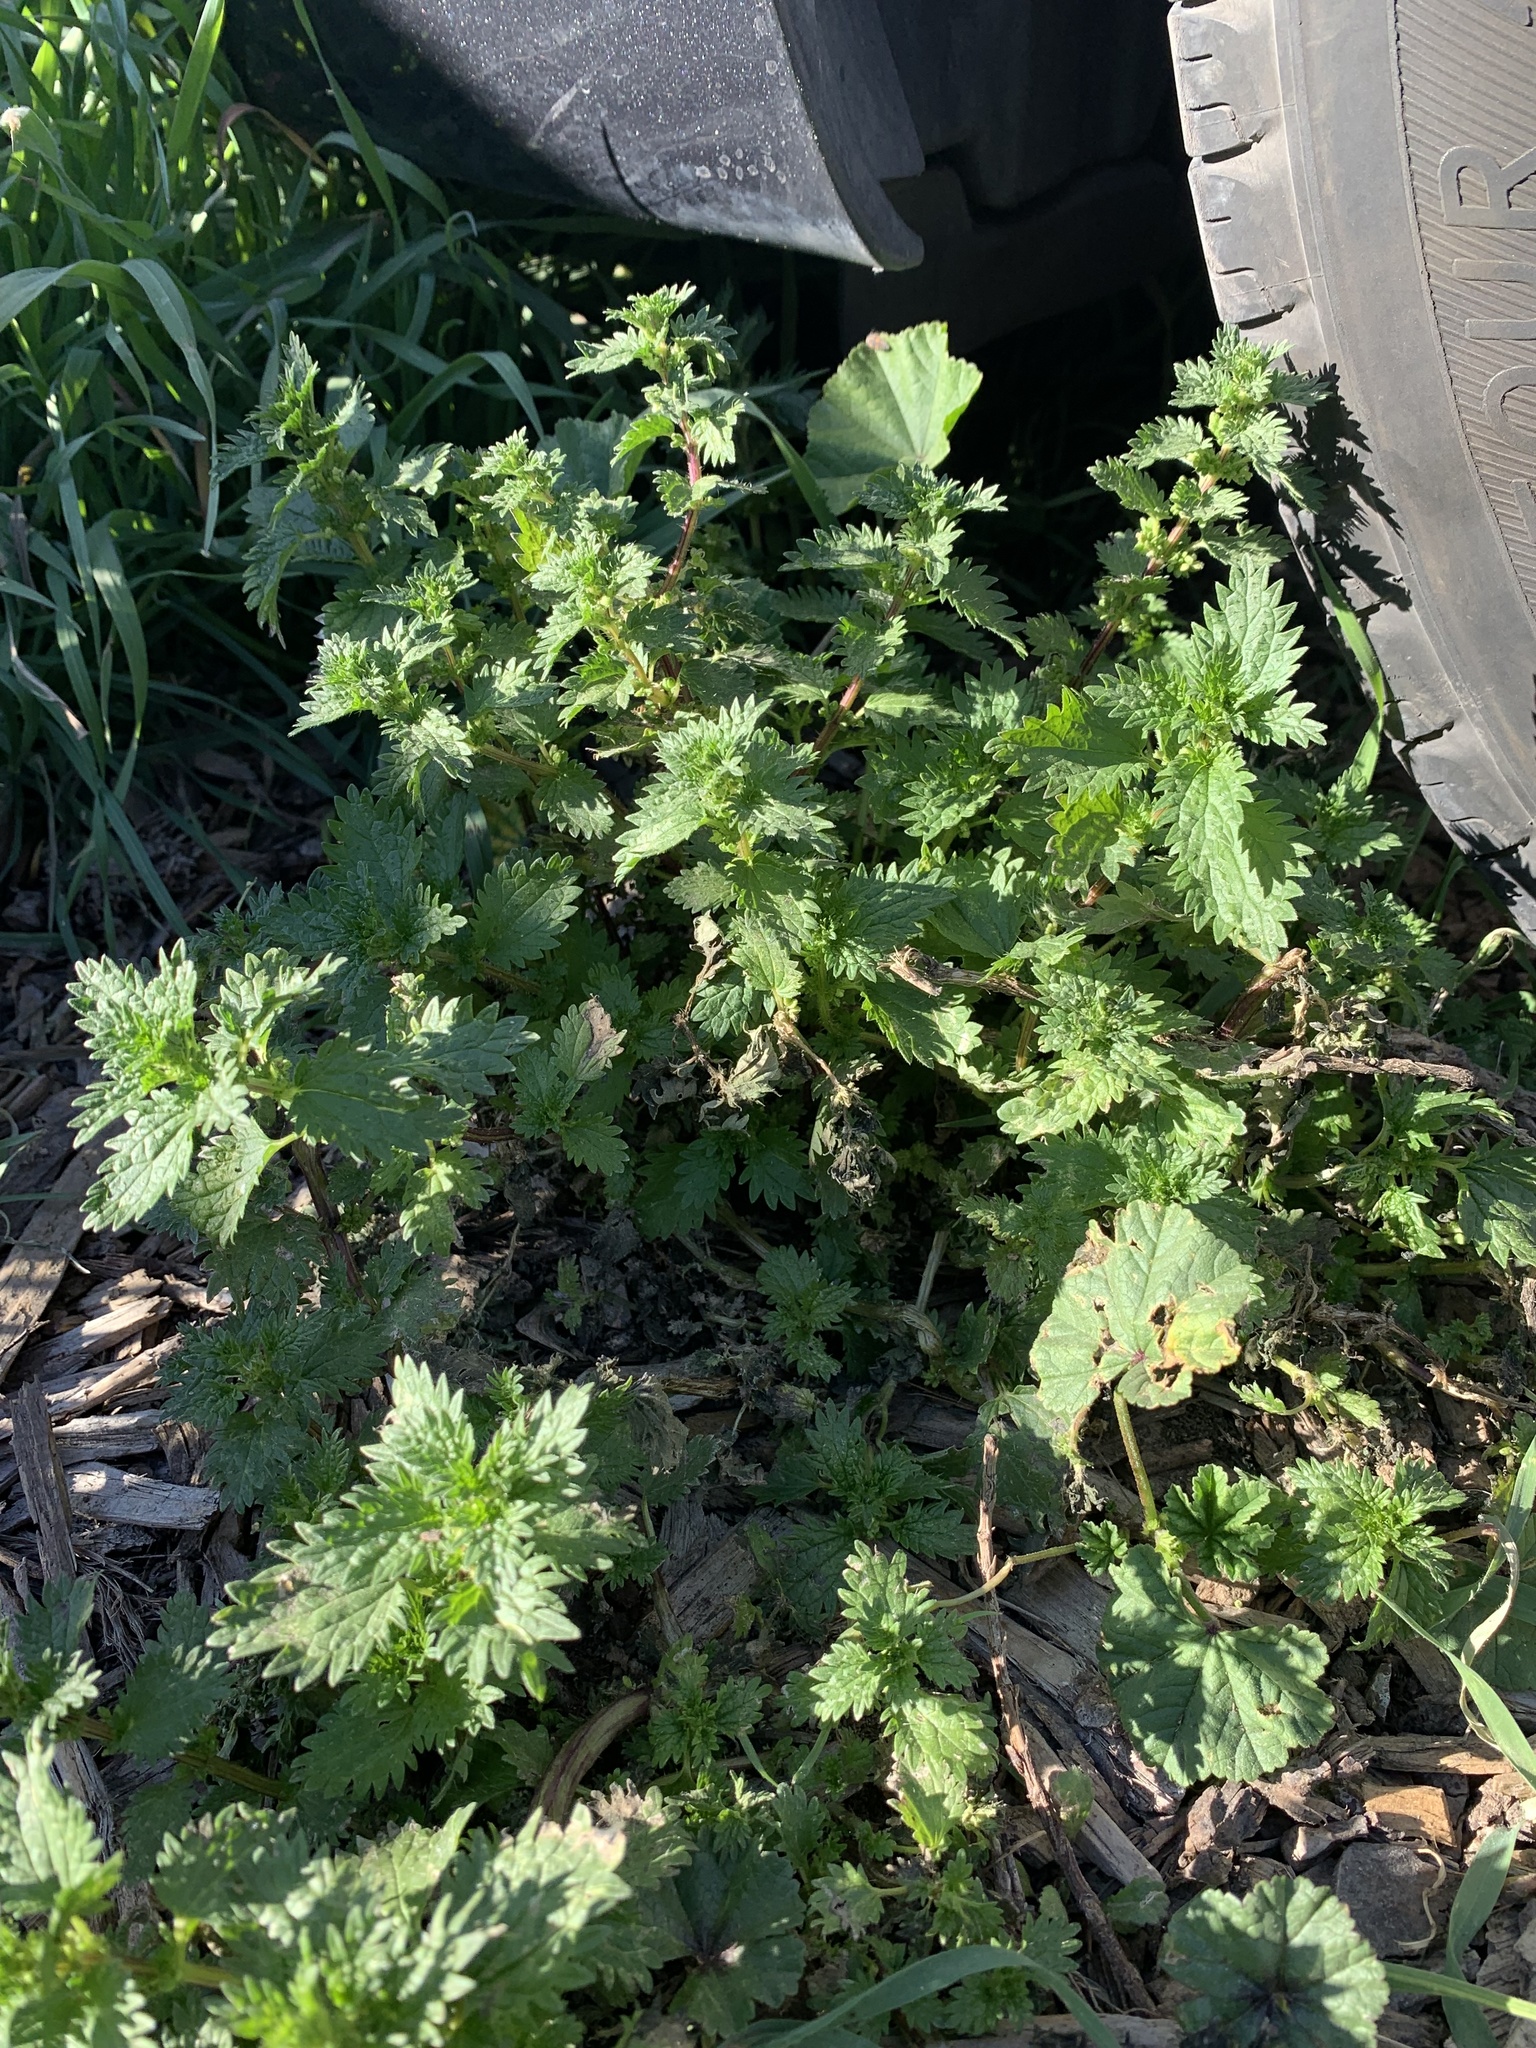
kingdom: Plantae
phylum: Tracheophyta
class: Magnoliopsida
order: Rosales
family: Urticaceae
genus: Urtica
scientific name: Urtica urens
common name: Dwarf nettle
